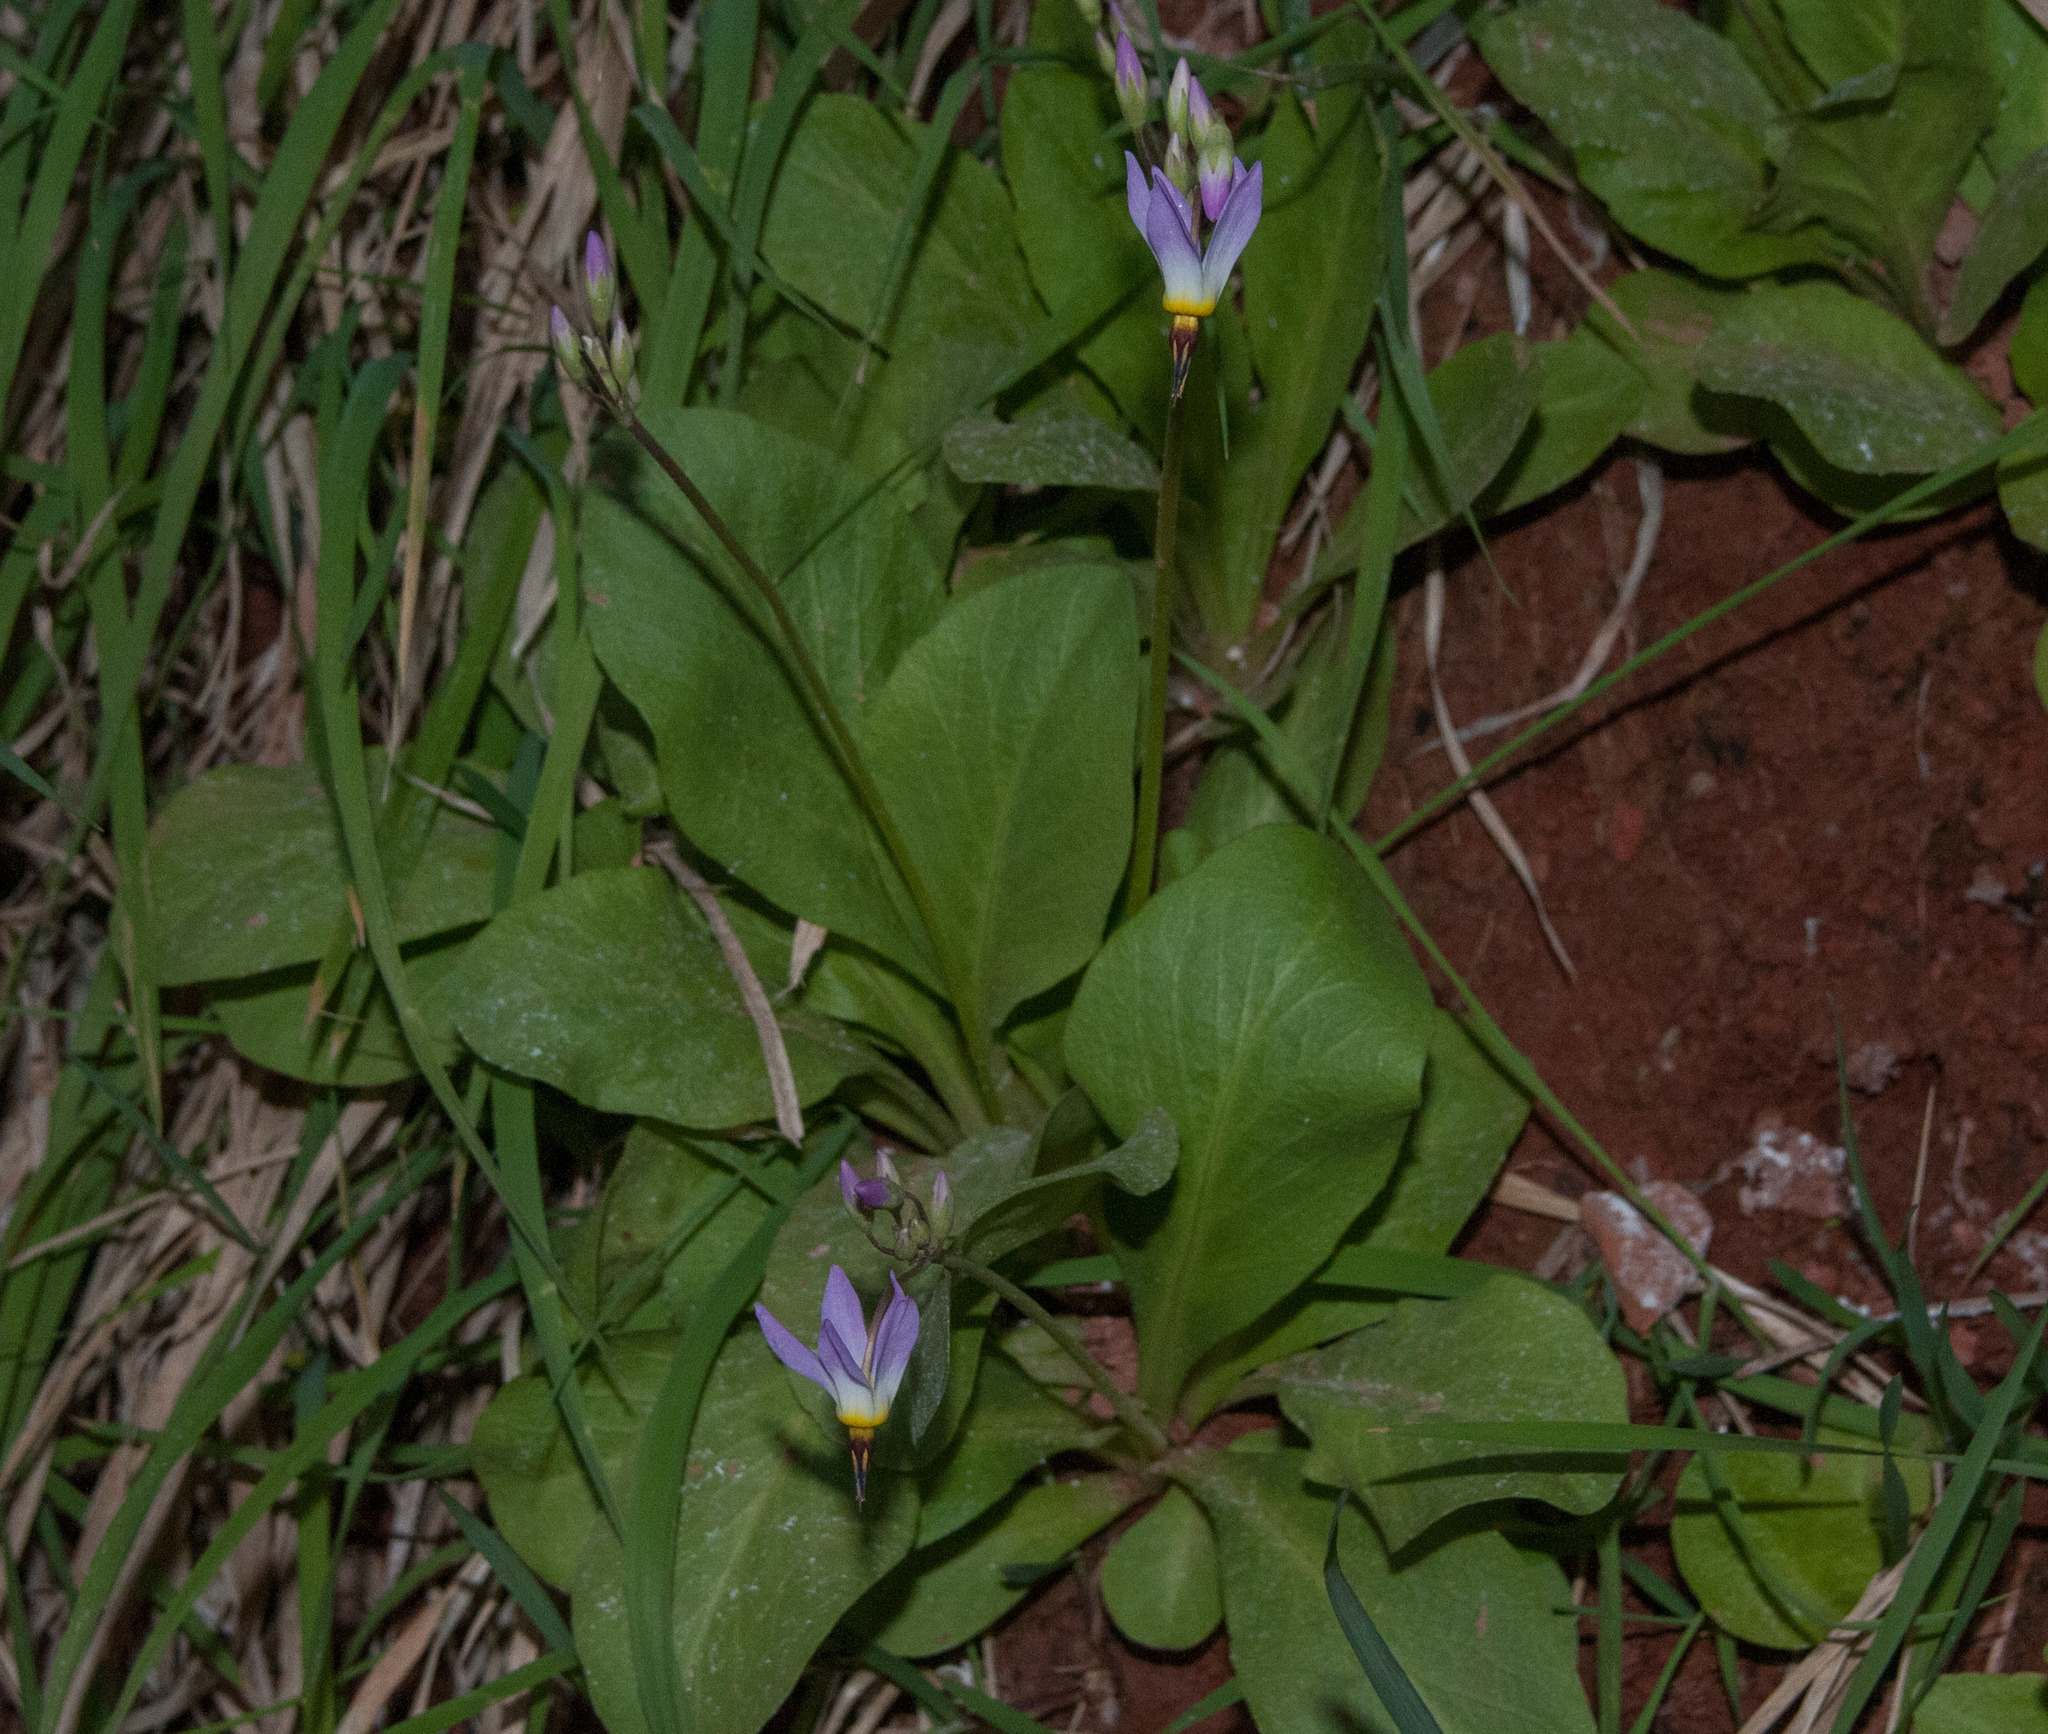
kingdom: Plantae
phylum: Tracheophyta
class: Magnoliopsida
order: Ericales
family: Primulaceae
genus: Dodecatheon
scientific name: Dodecatheon pulchellum
